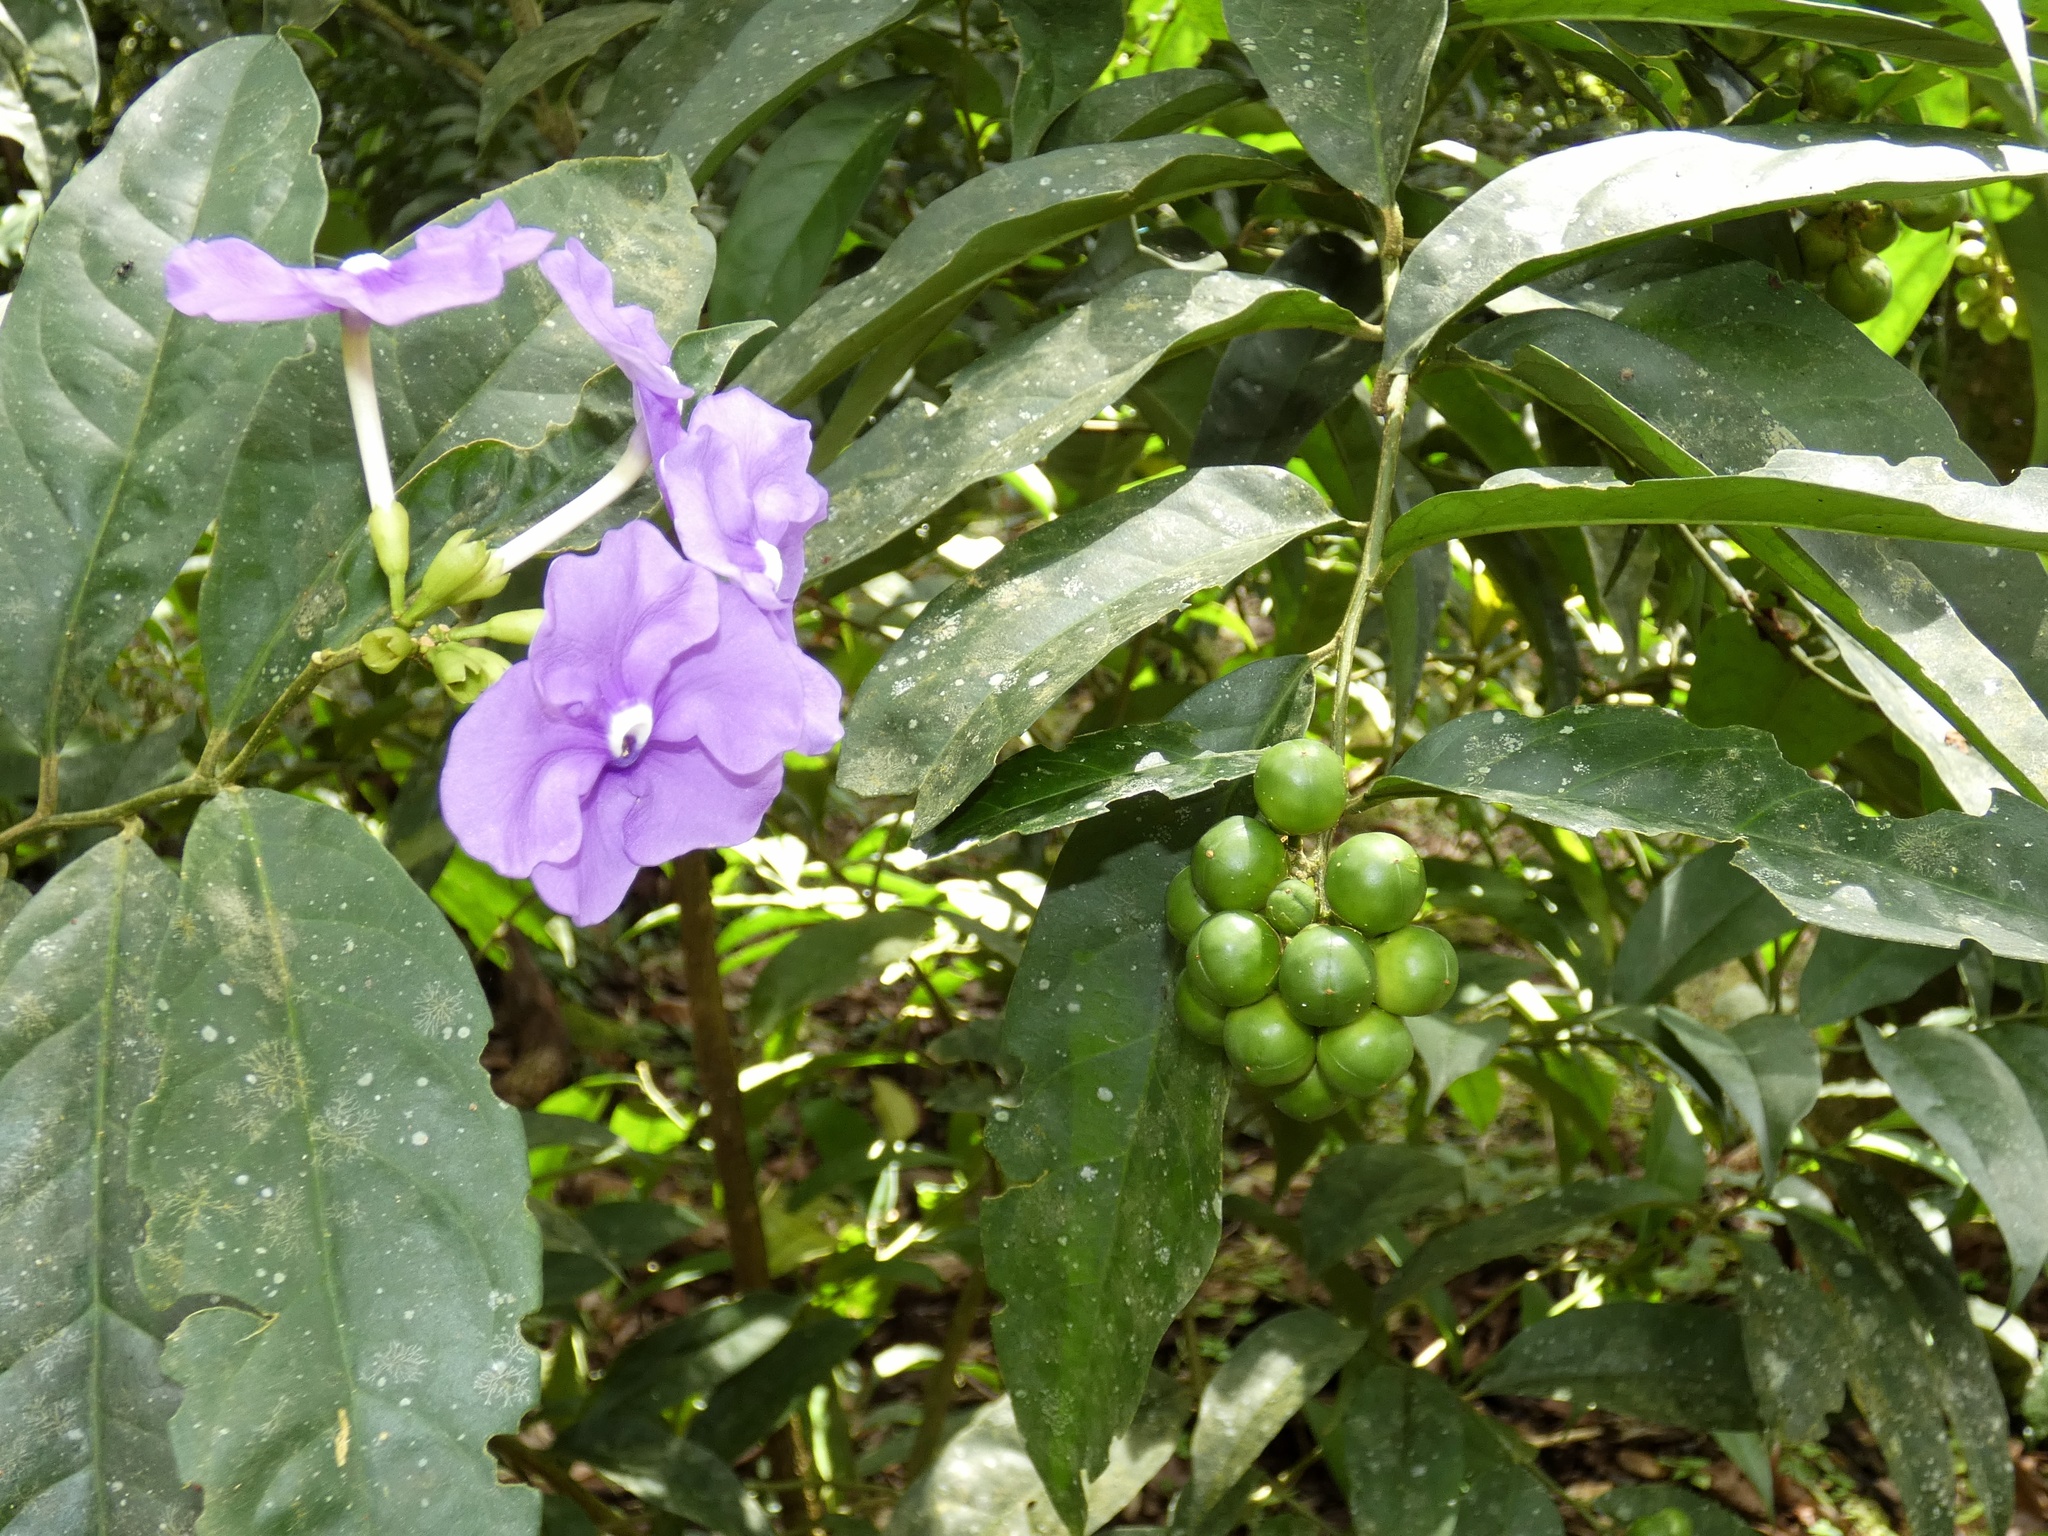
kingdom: Plantae
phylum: Tracheophyta
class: Magnoliopsida
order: Solanales
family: Solanaceae
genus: Brunfelsia
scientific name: Brunfelsia pauciflora
